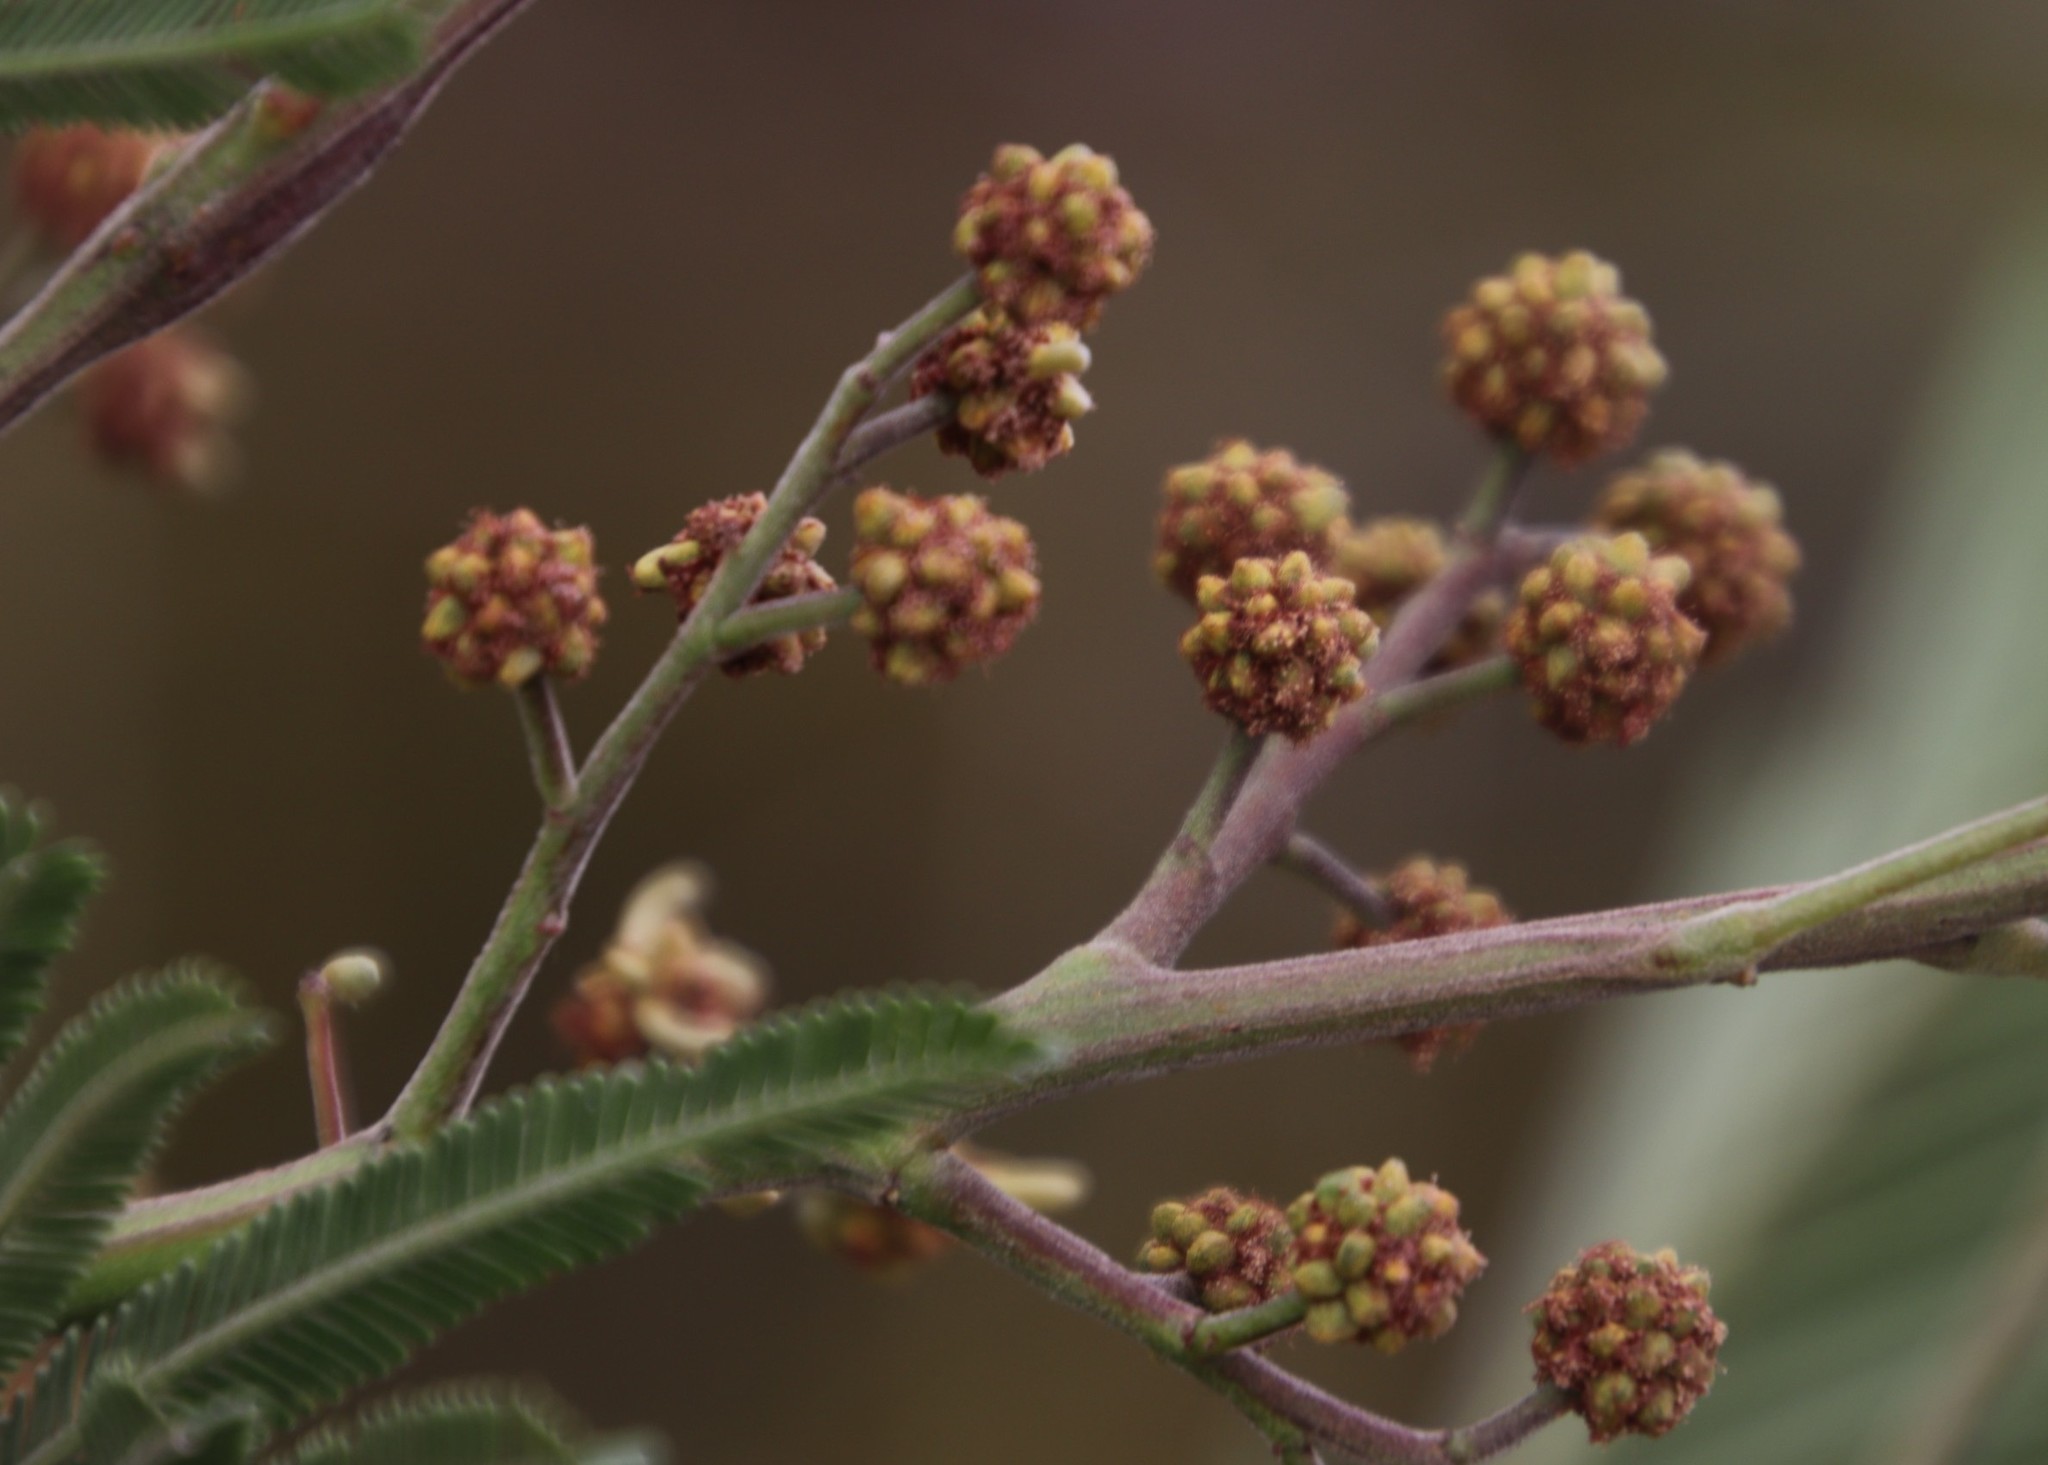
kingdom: Plantae
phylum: Tracheophyta
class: Magnoliopsida
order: Fabales
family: Fabaceae
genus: Acacia
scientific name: Acacia mearnsii
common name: Black wattle
